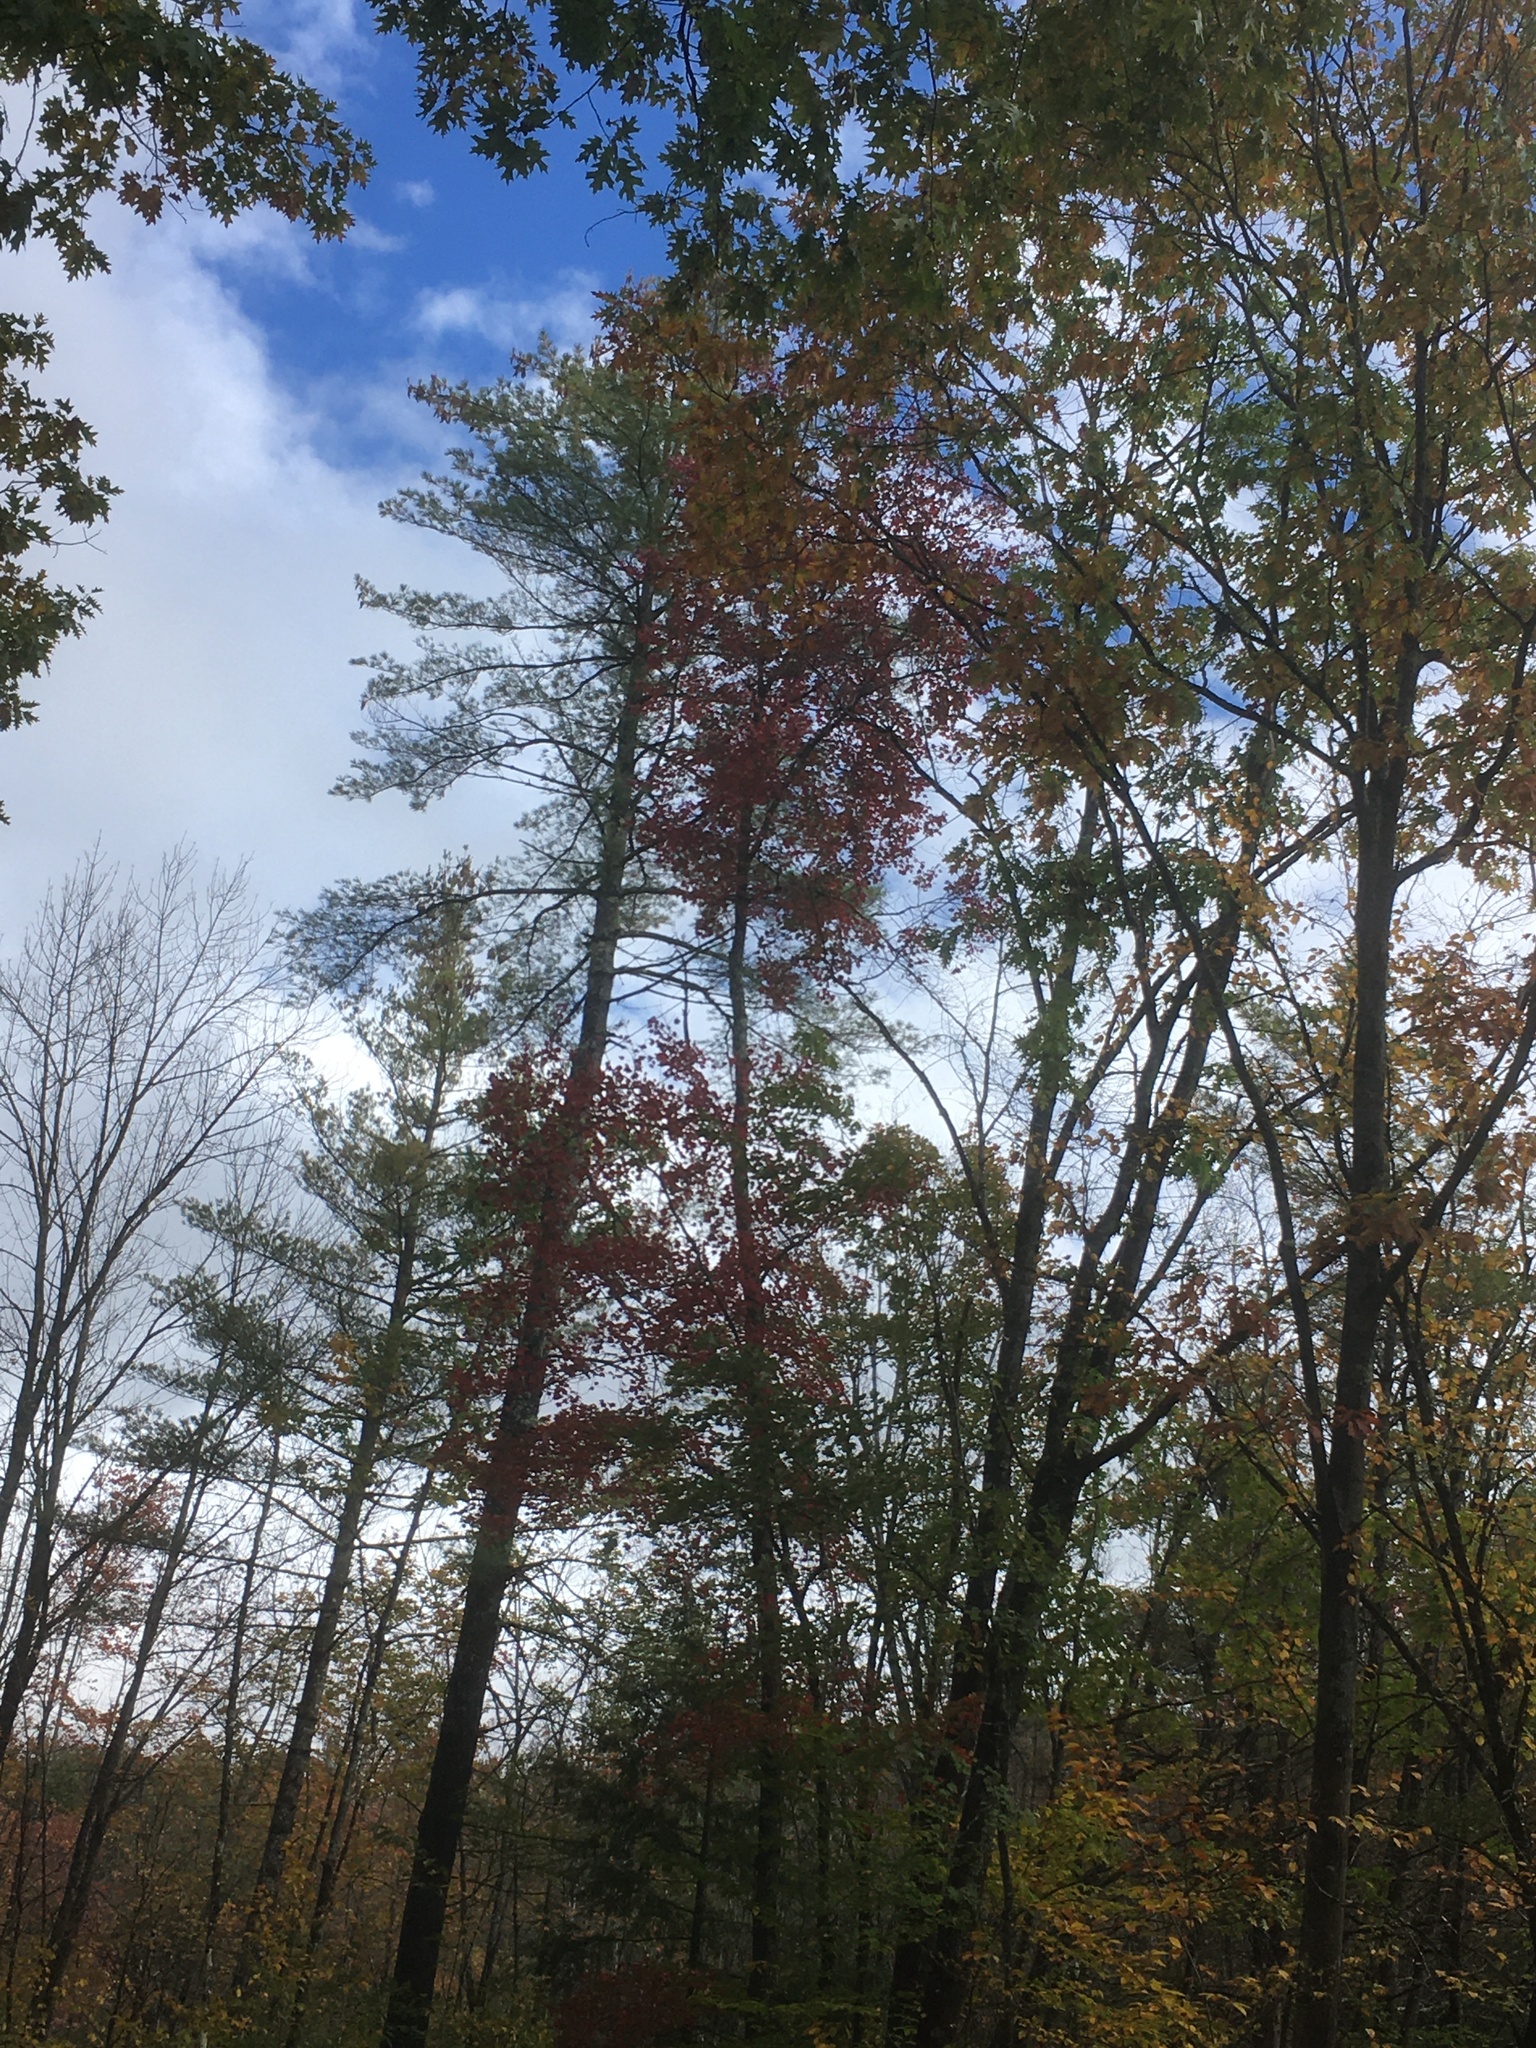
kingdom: Plantae
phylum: Tracheophyta
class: Magnoliopsida
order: Sapindales
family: Sapindaceae
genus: Acer
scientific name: Acer rubrum
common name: Red maple
